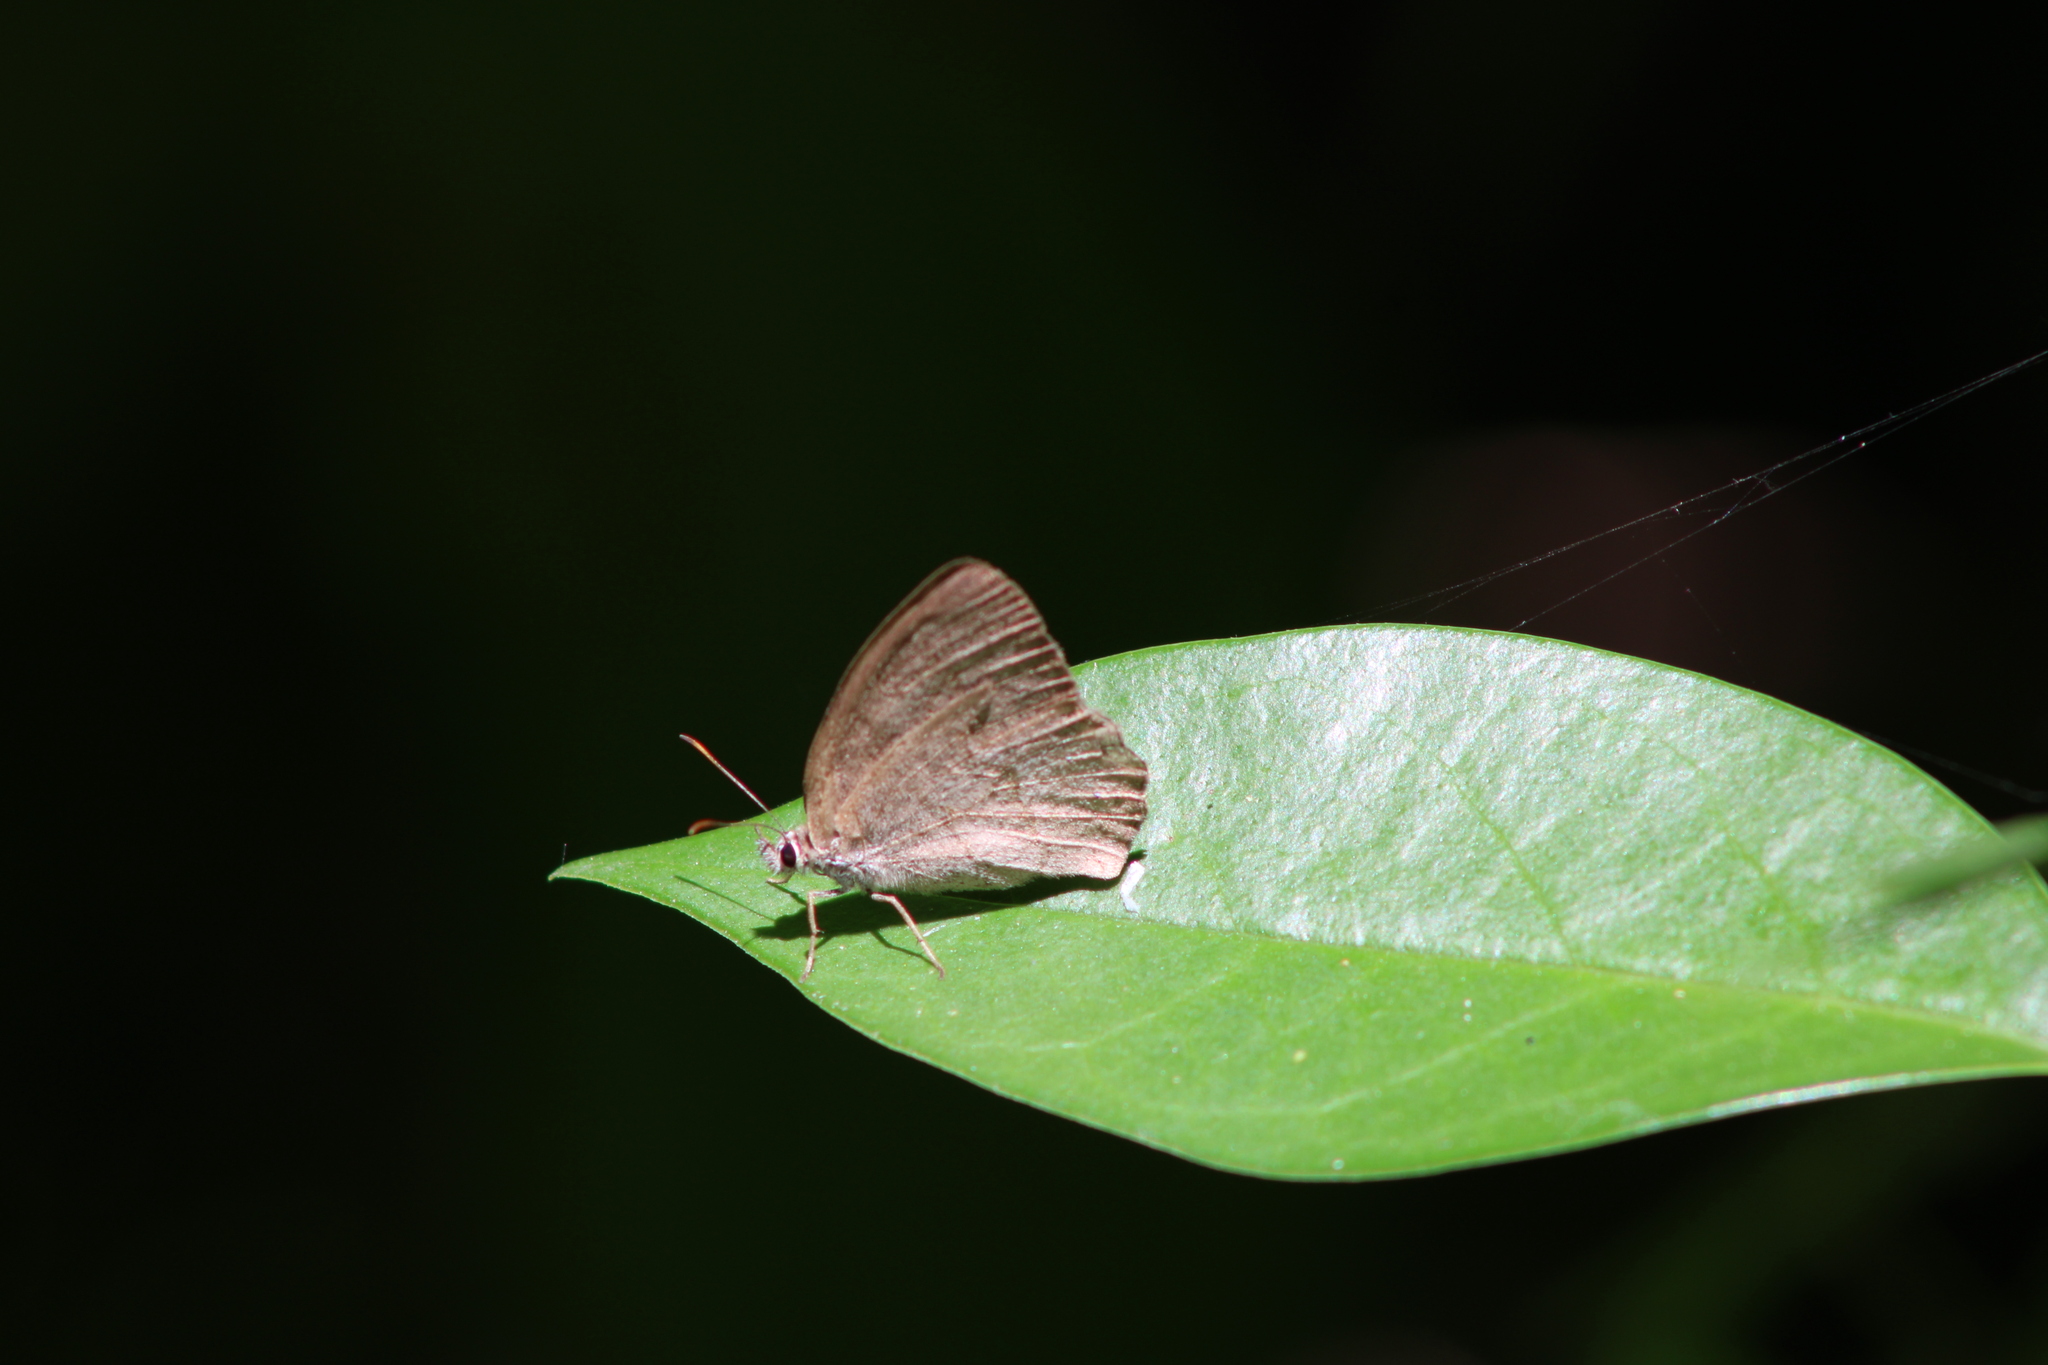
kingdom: Animalia
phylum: Arthropoda
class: Insecta
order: Lepidoptera
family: Nymphalidae
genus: Euptychia
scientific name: Euptychia
